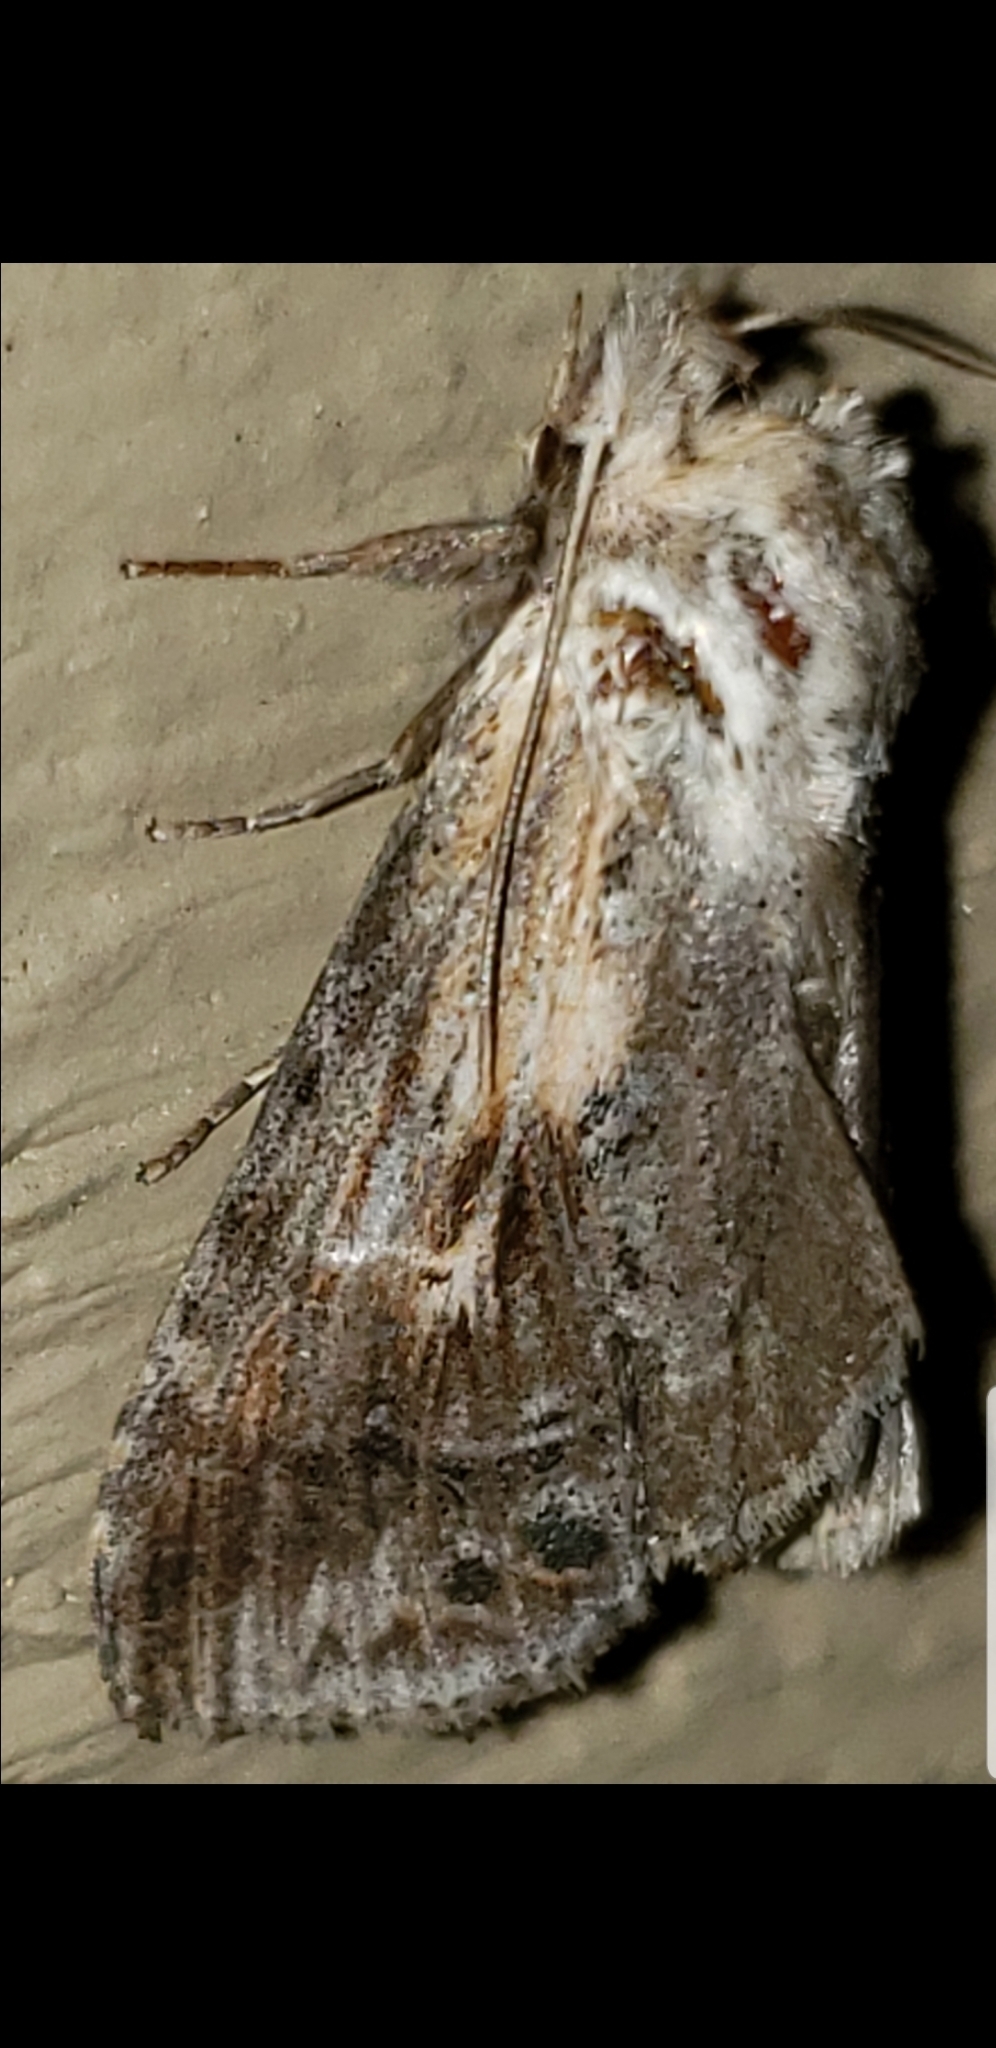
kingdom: Animalia
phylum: Arthropoda
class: Insecta
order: Lepidoptera
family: Notodontidae
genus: Dasylophia
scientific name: Dasylophia anguina
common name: Black-spotted prominent
